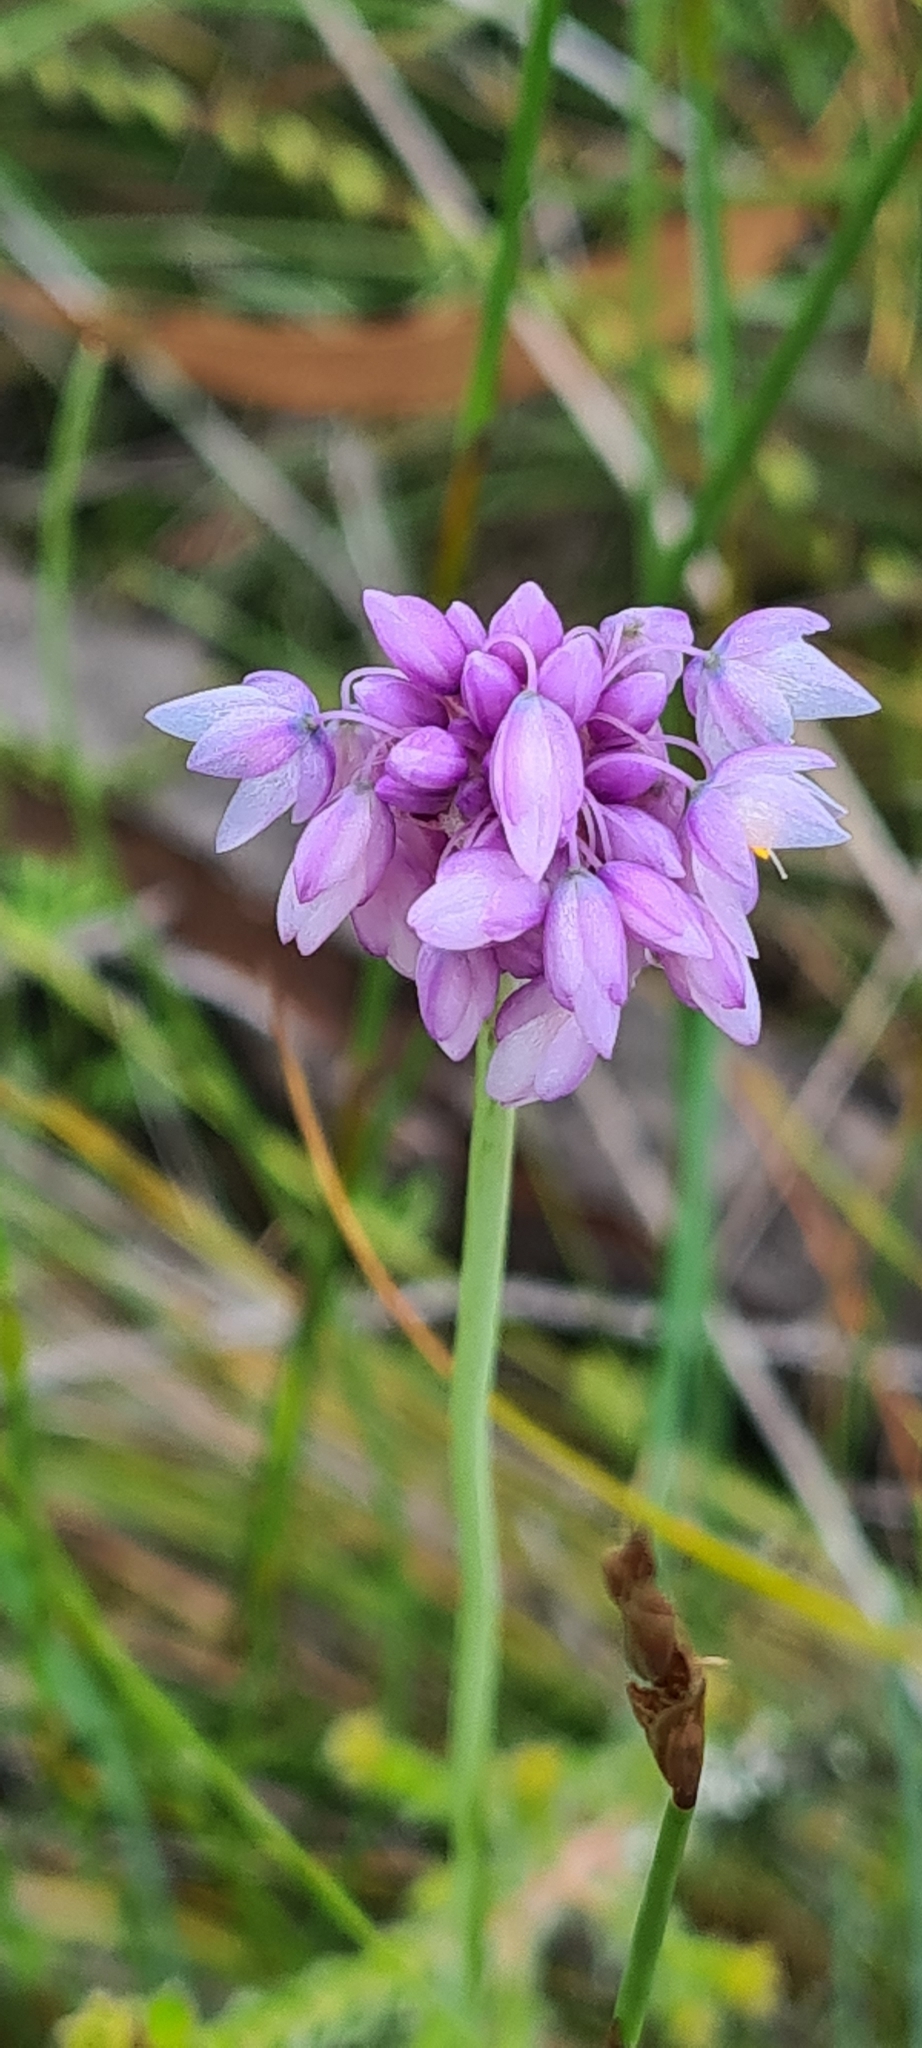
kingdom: Plantae
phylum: Tracheophyta
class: Liliopsida
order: Asparagales
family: Asparagaceae
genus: Sowerbaea
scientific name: Sowerbaea juncea
